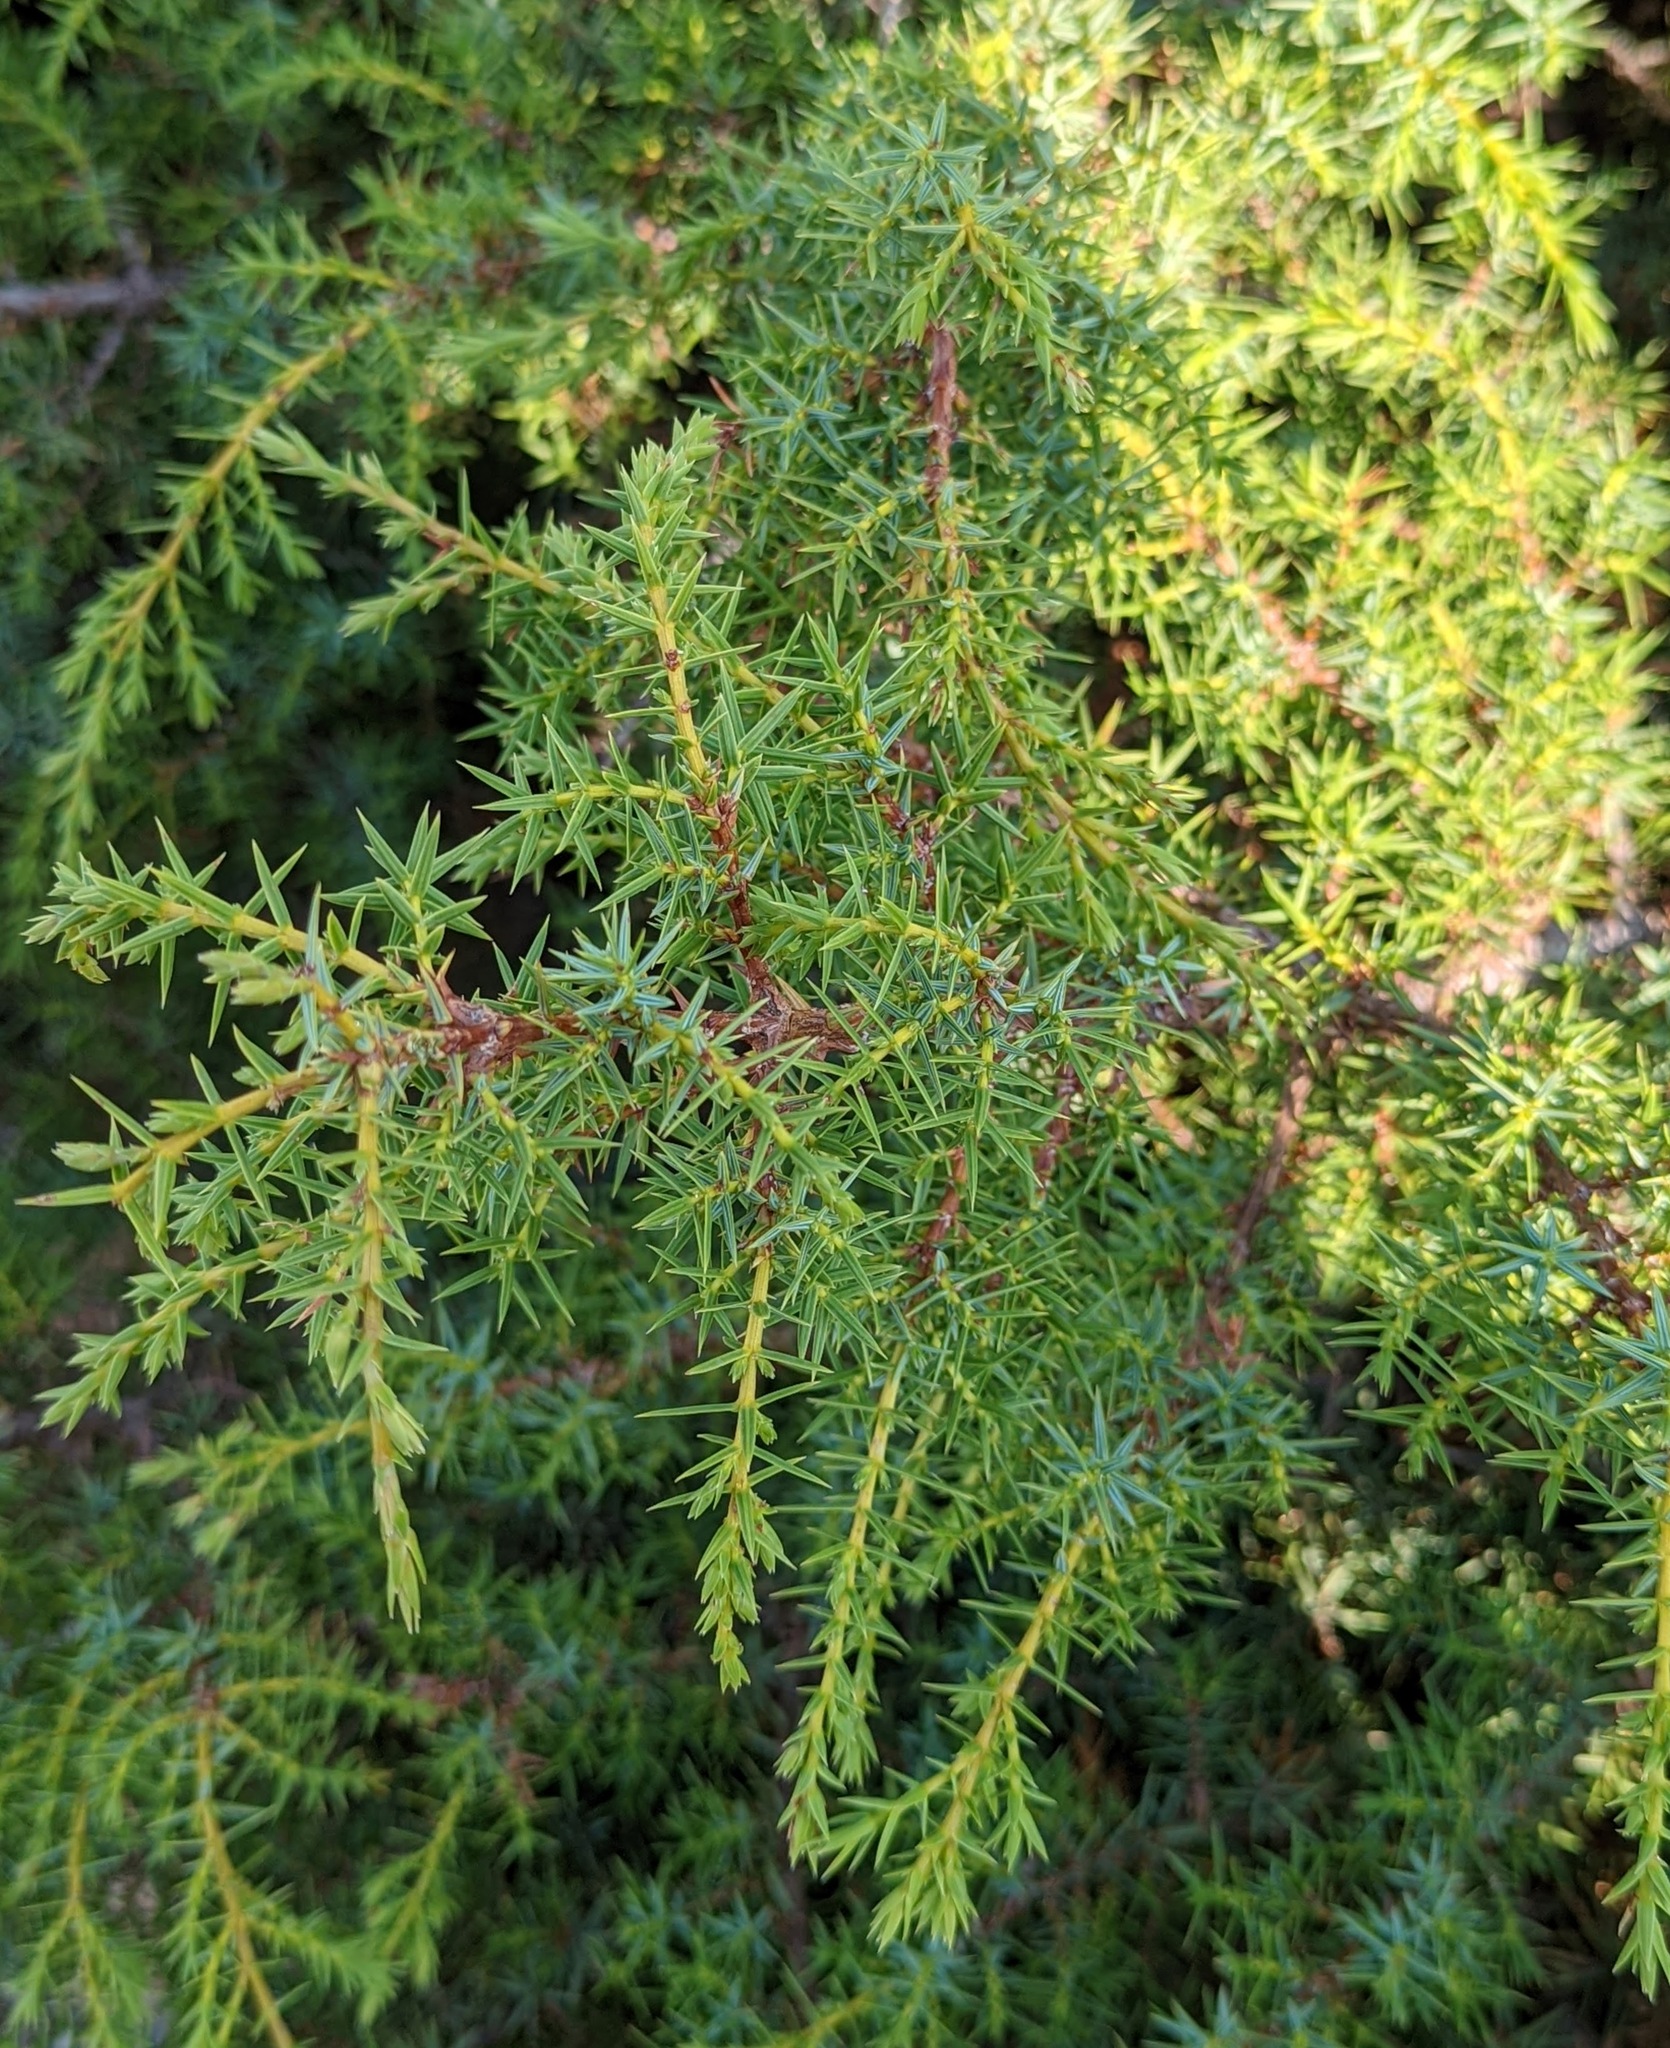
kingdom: Plantae
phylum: Tracheophyta
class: Pinopsida
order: Pinales
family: Cupressaceae
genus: Juniperus
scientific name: Juniperus
